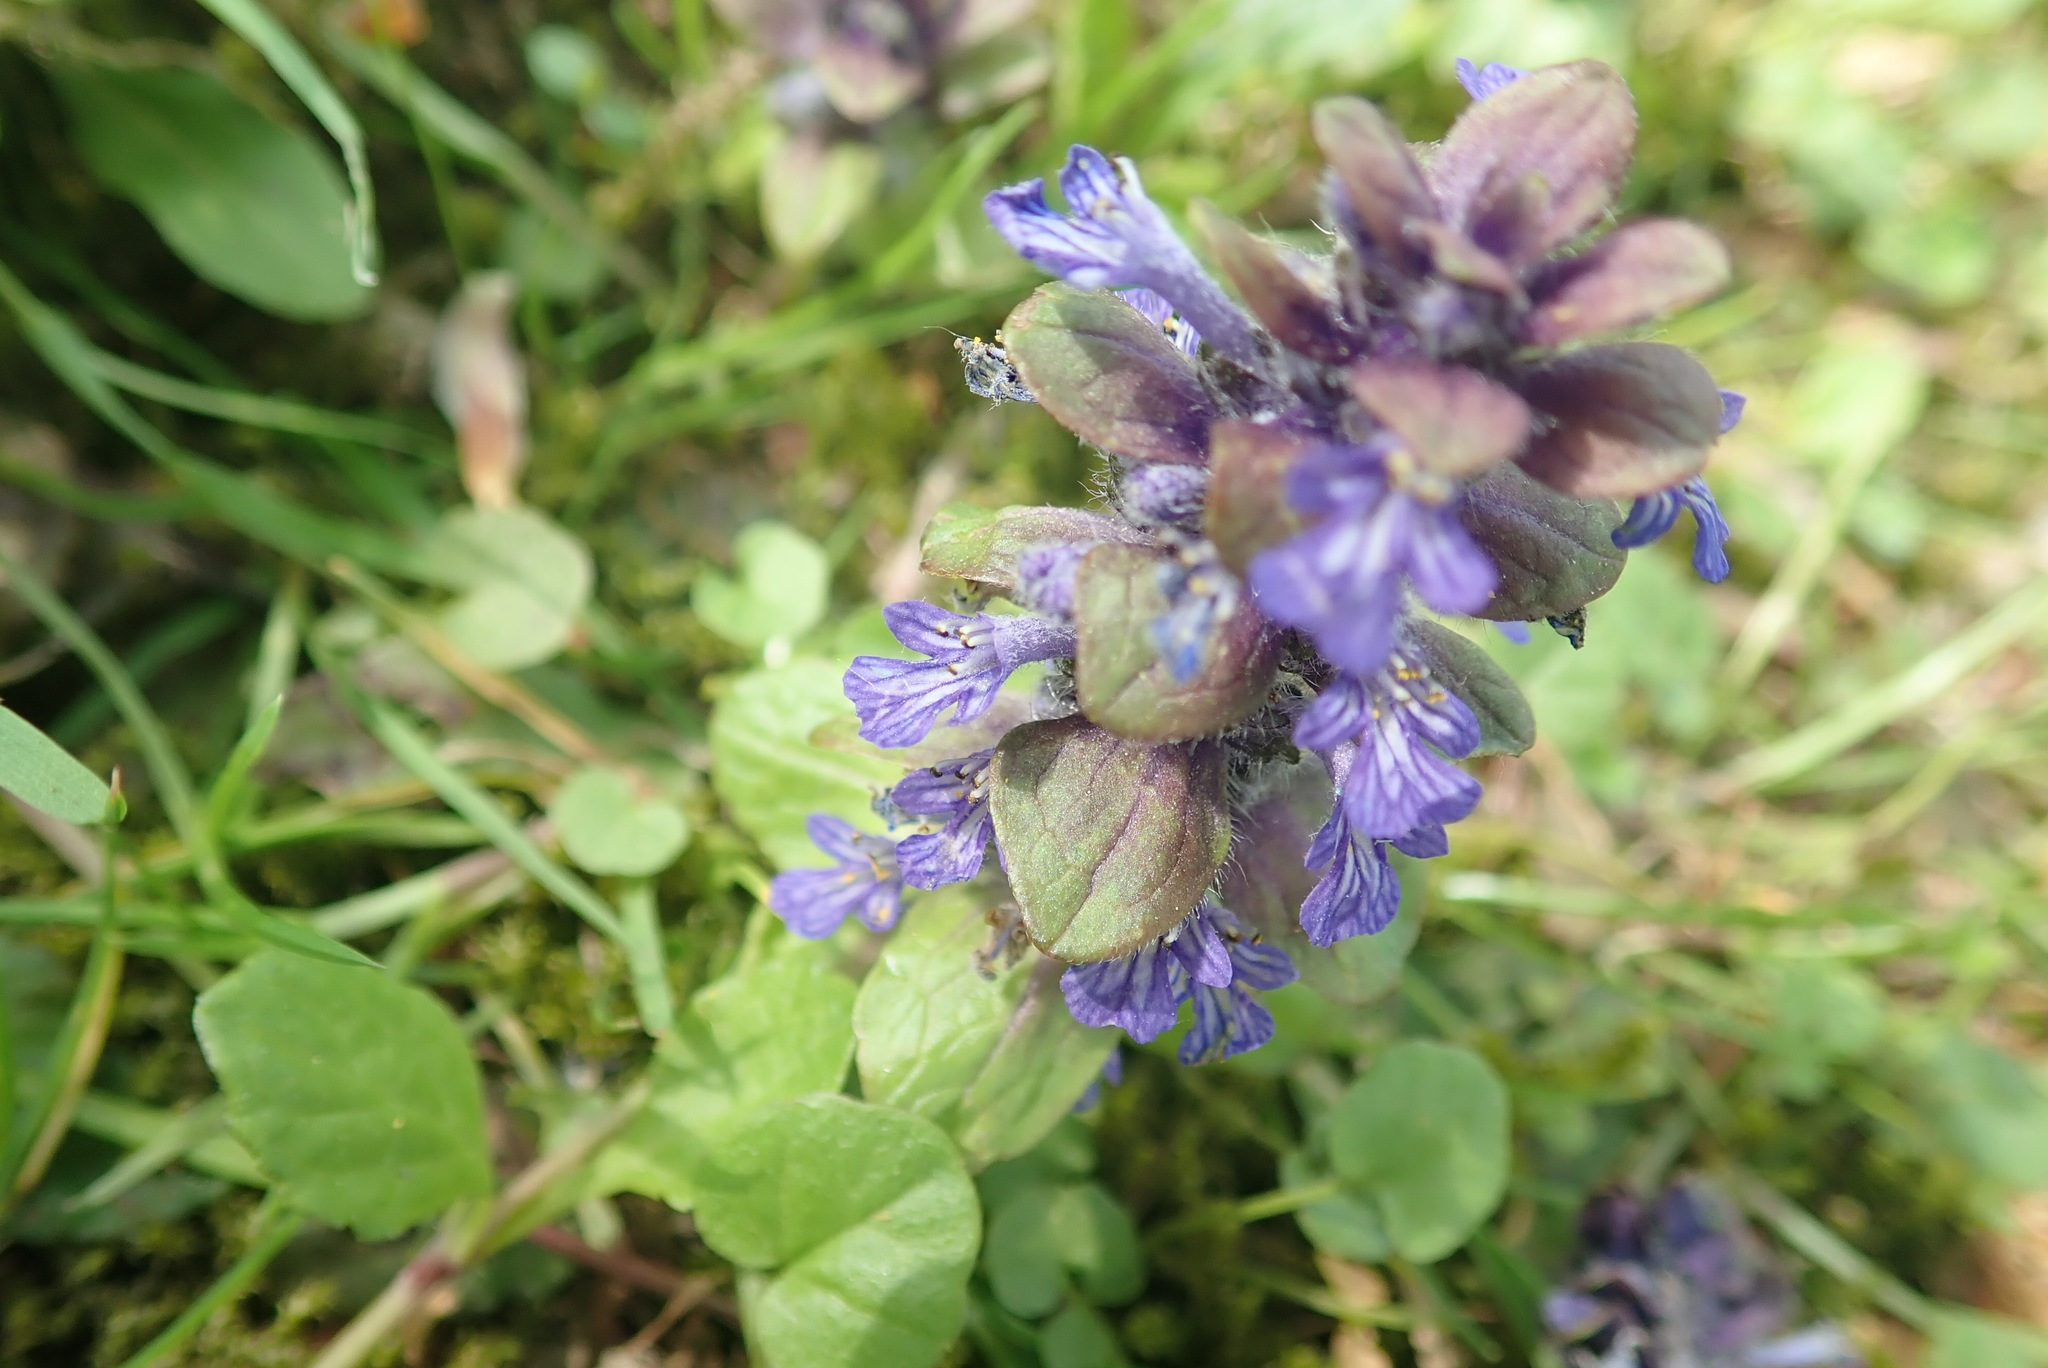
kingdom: Plantae
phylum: Tracheophyta
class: Magnoliopsida
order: Lamiales
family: Lamiaceae
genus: Ajuga
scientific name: Ajuga reptans
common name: Bugle
